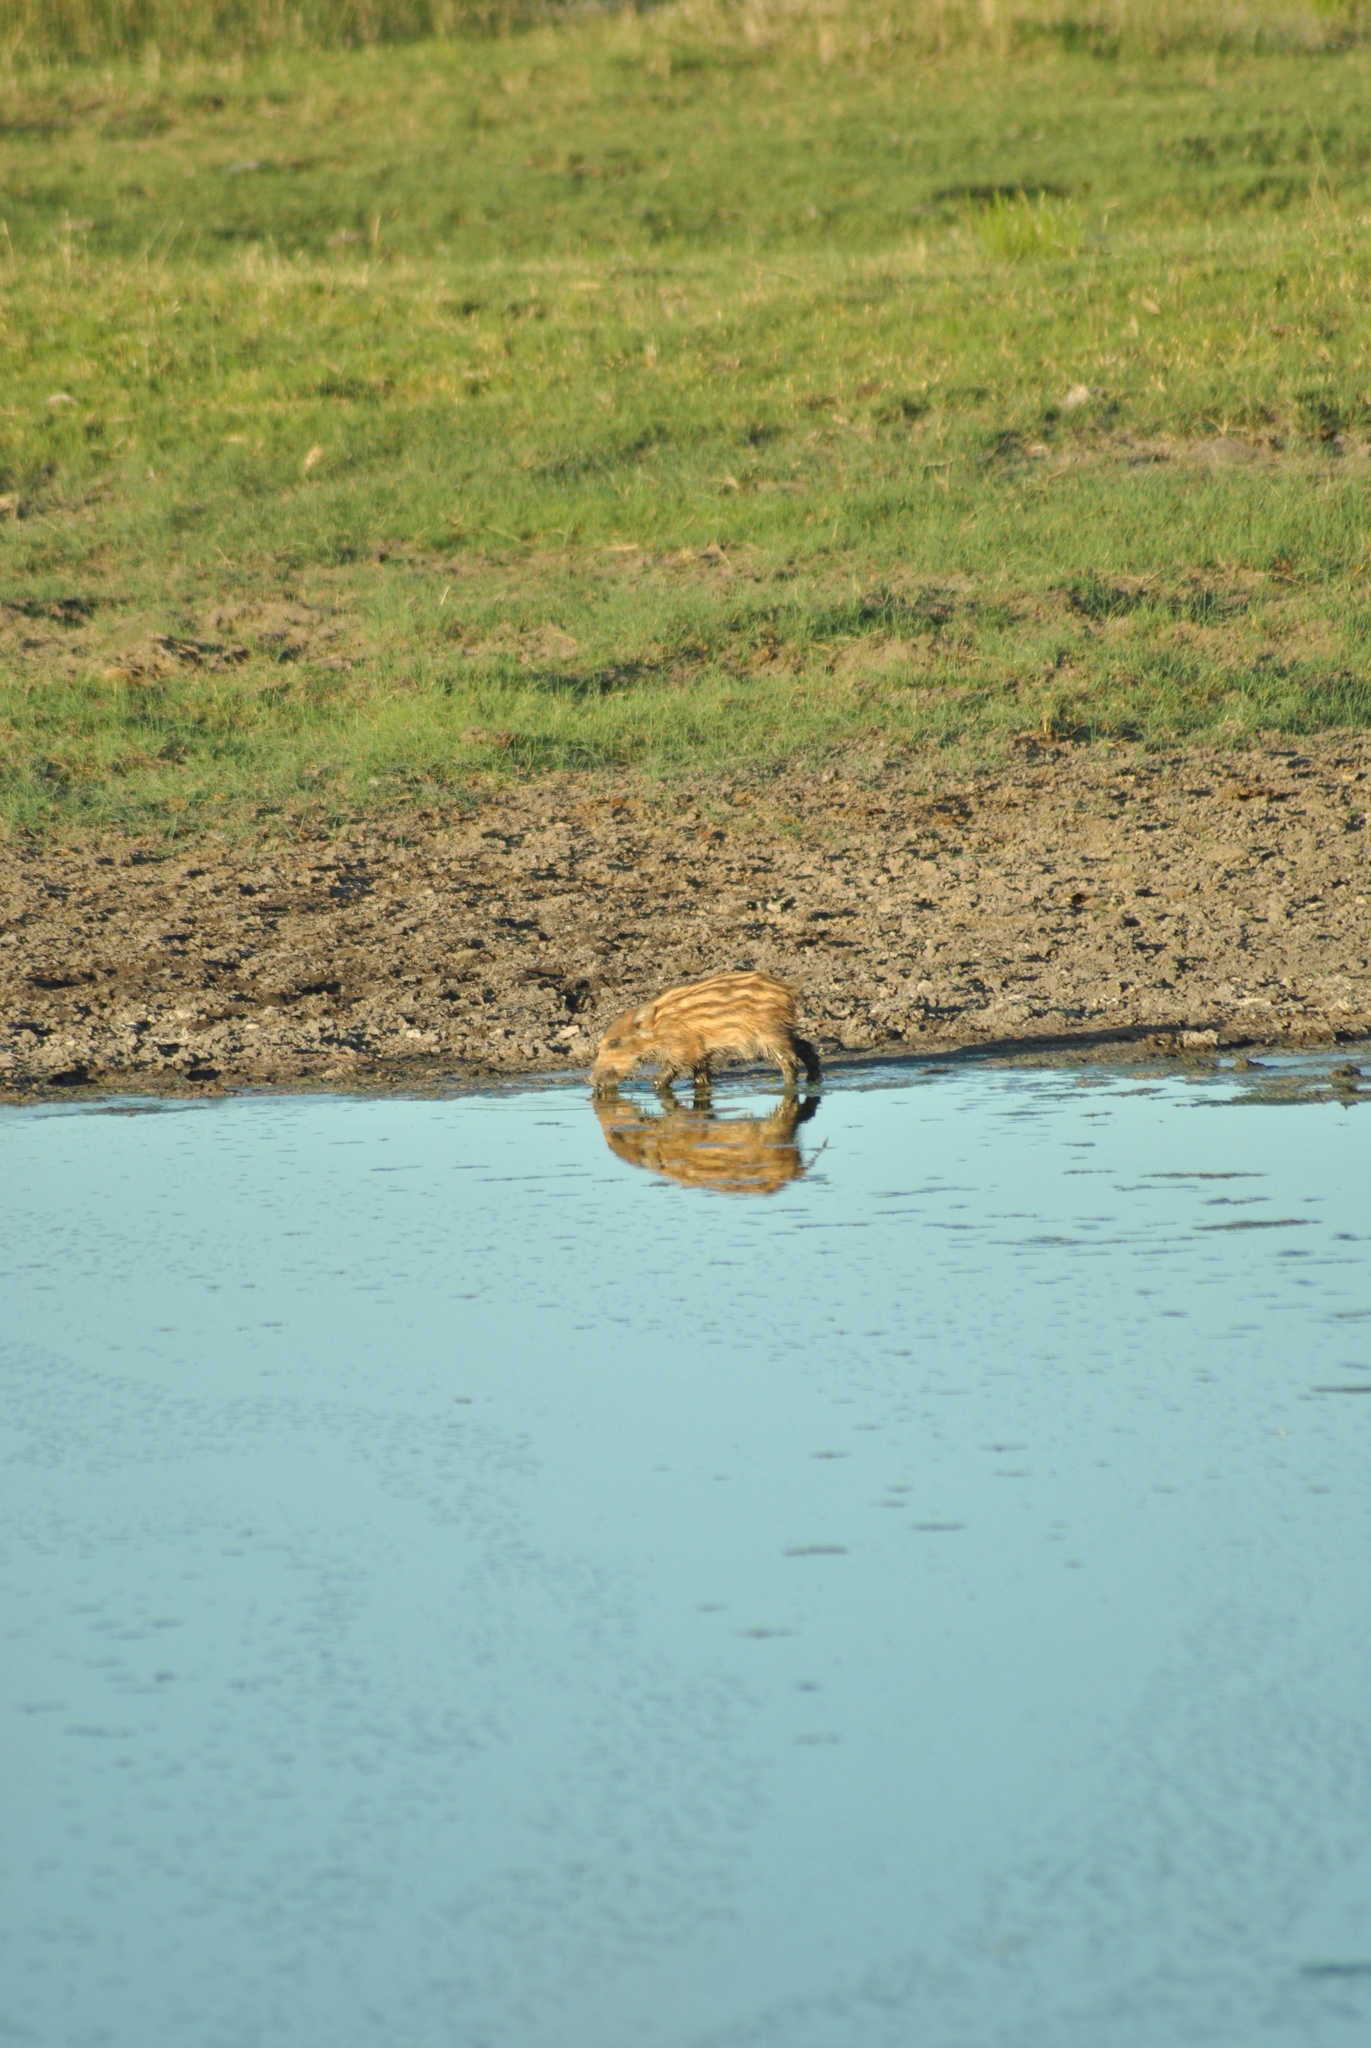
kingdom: Animalia
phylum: Chordata
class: Mammalia
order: Artiodactyla
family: Suidae
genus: Sus
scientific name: Sus scrofa
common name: Wild boar
